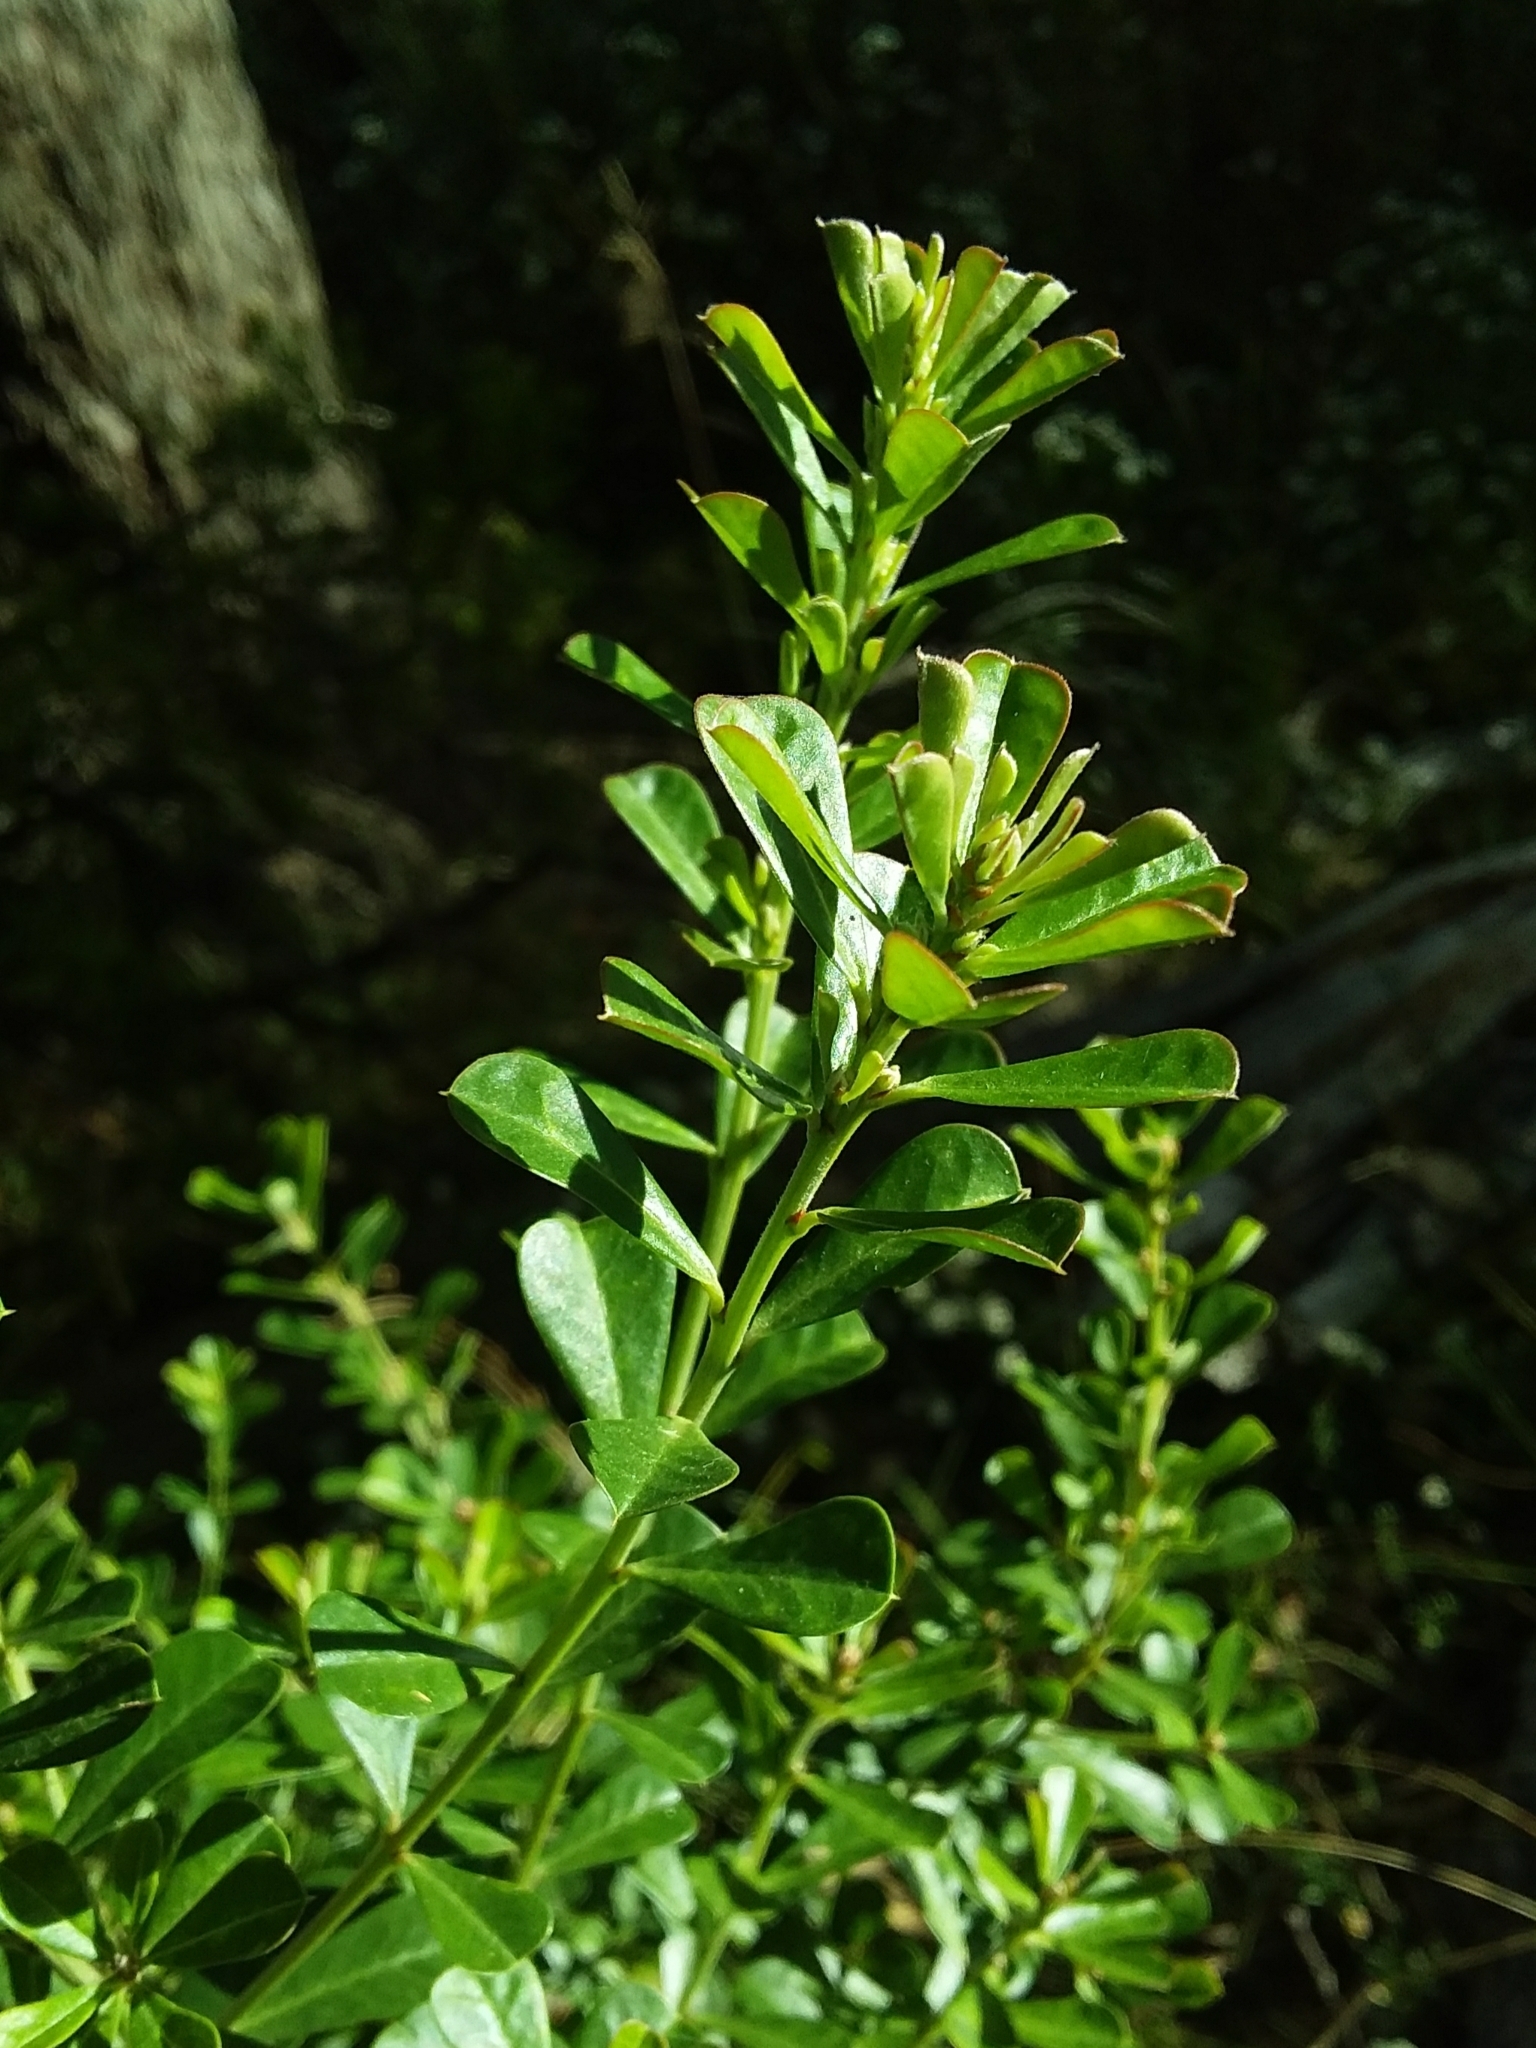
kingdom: Plantae
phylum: Tracheophyta
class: Magnoliopsida
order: Fabales
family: Fabaceae
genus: Pultenaea
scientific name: Pultenaea daphnoides
